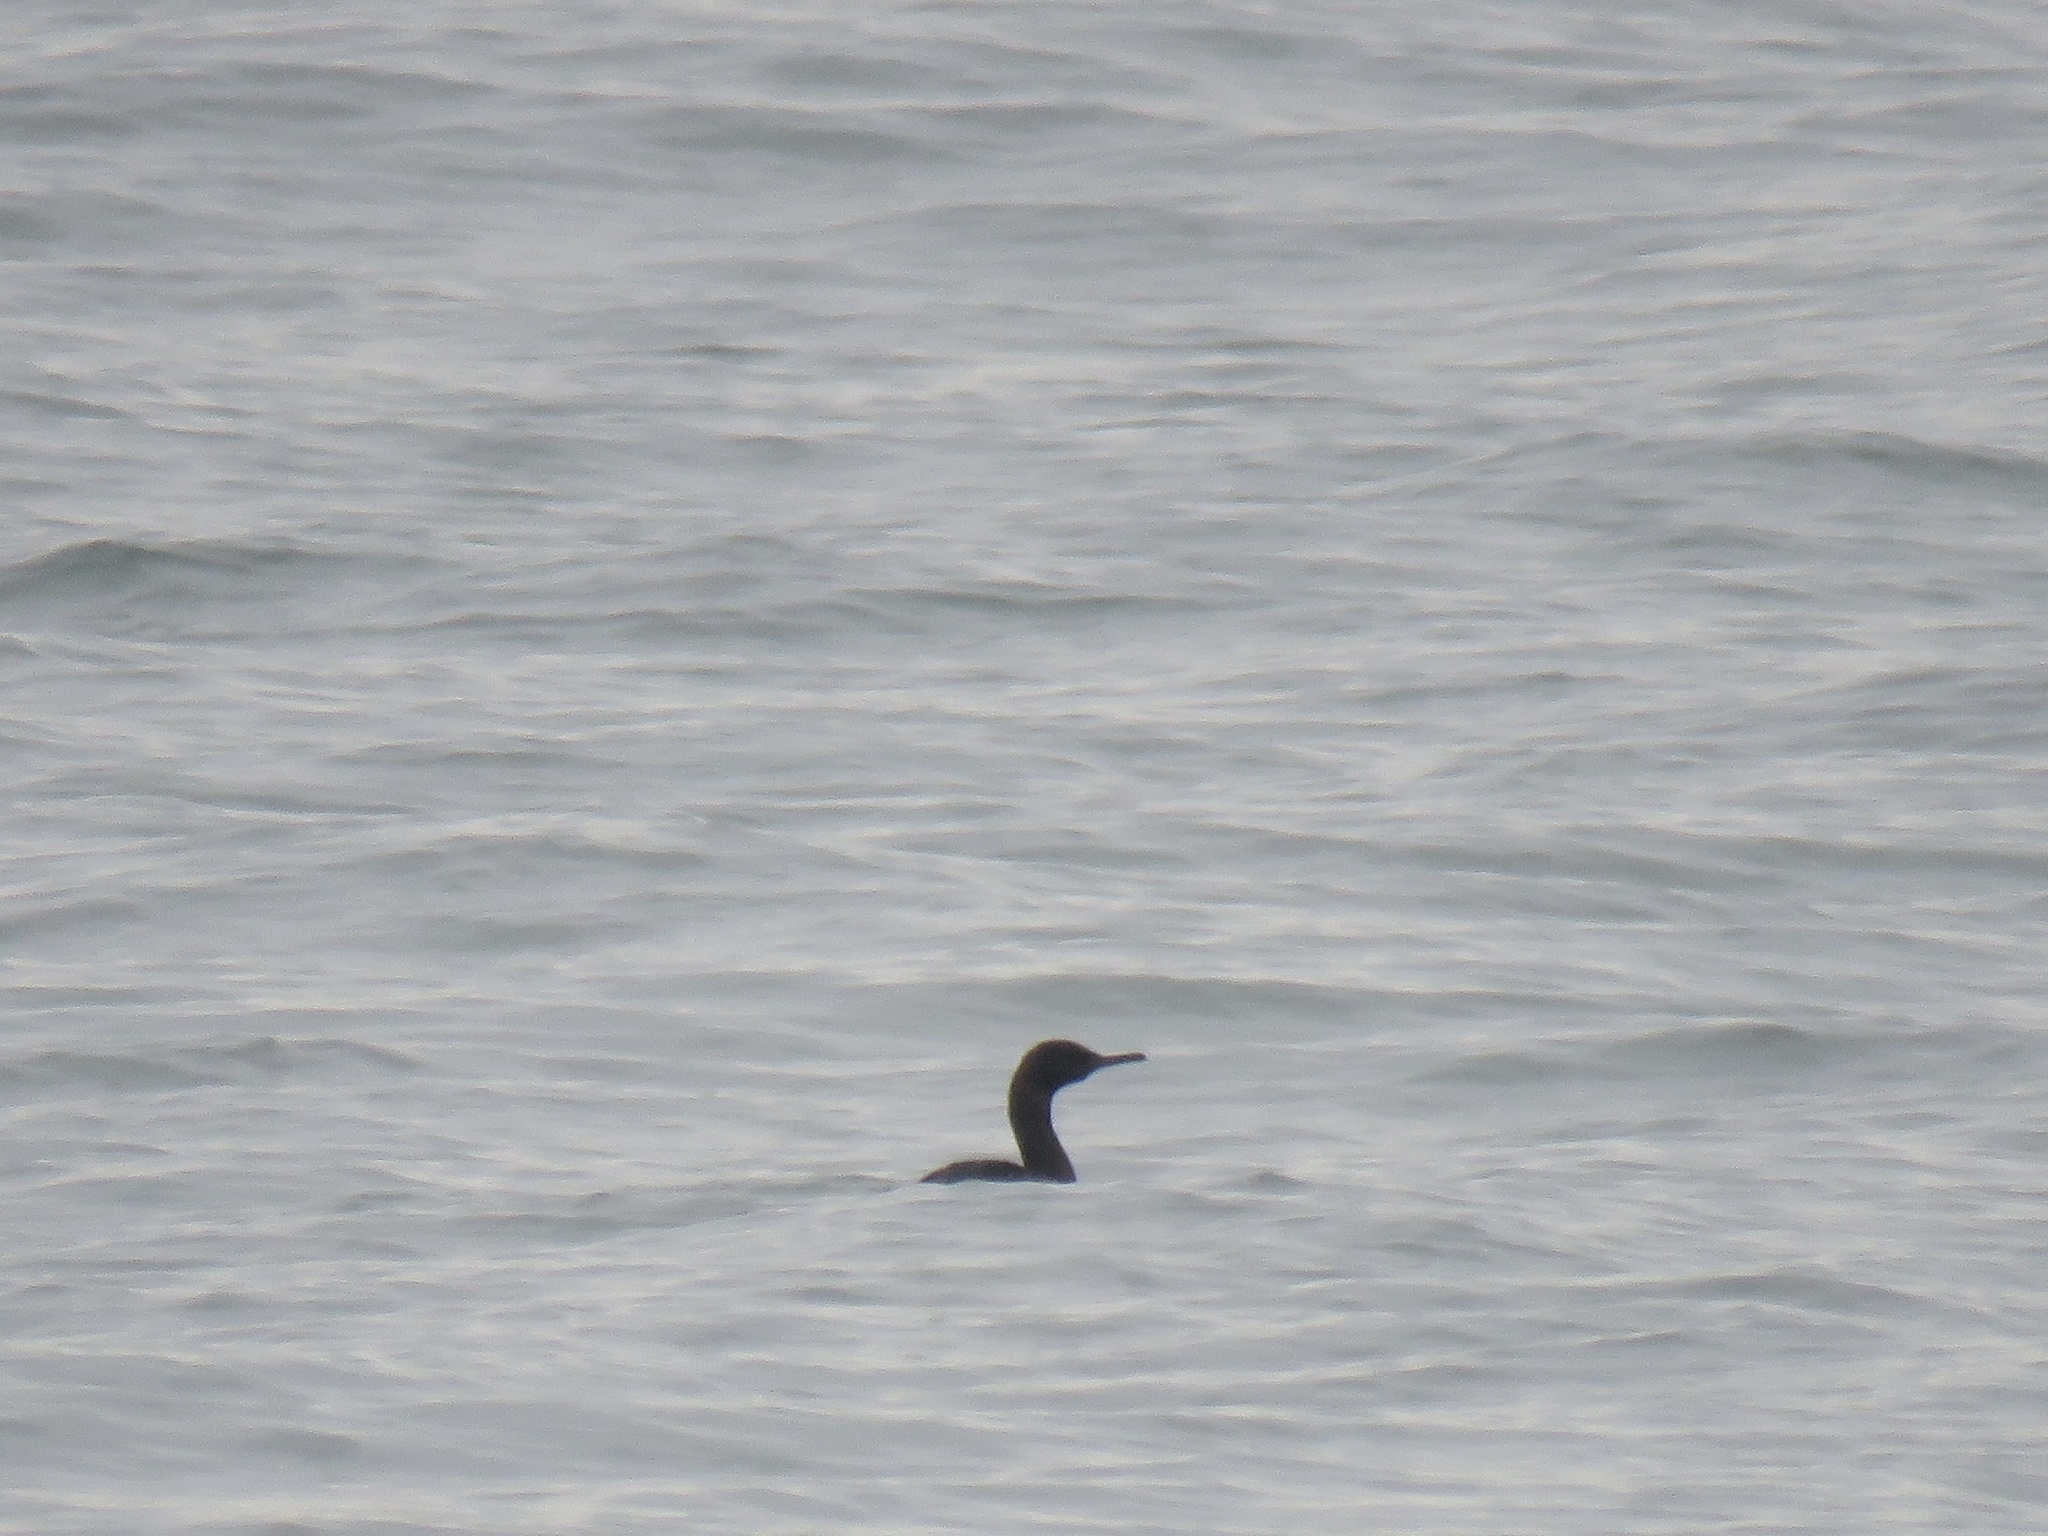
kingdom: Animalia
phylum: Chordata
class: Aves
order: Suliformes
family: Phalacrocoracidae
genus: Phalacrocorax
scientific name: Phalacrocorax pelagicus
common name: Pelagic cormorant
